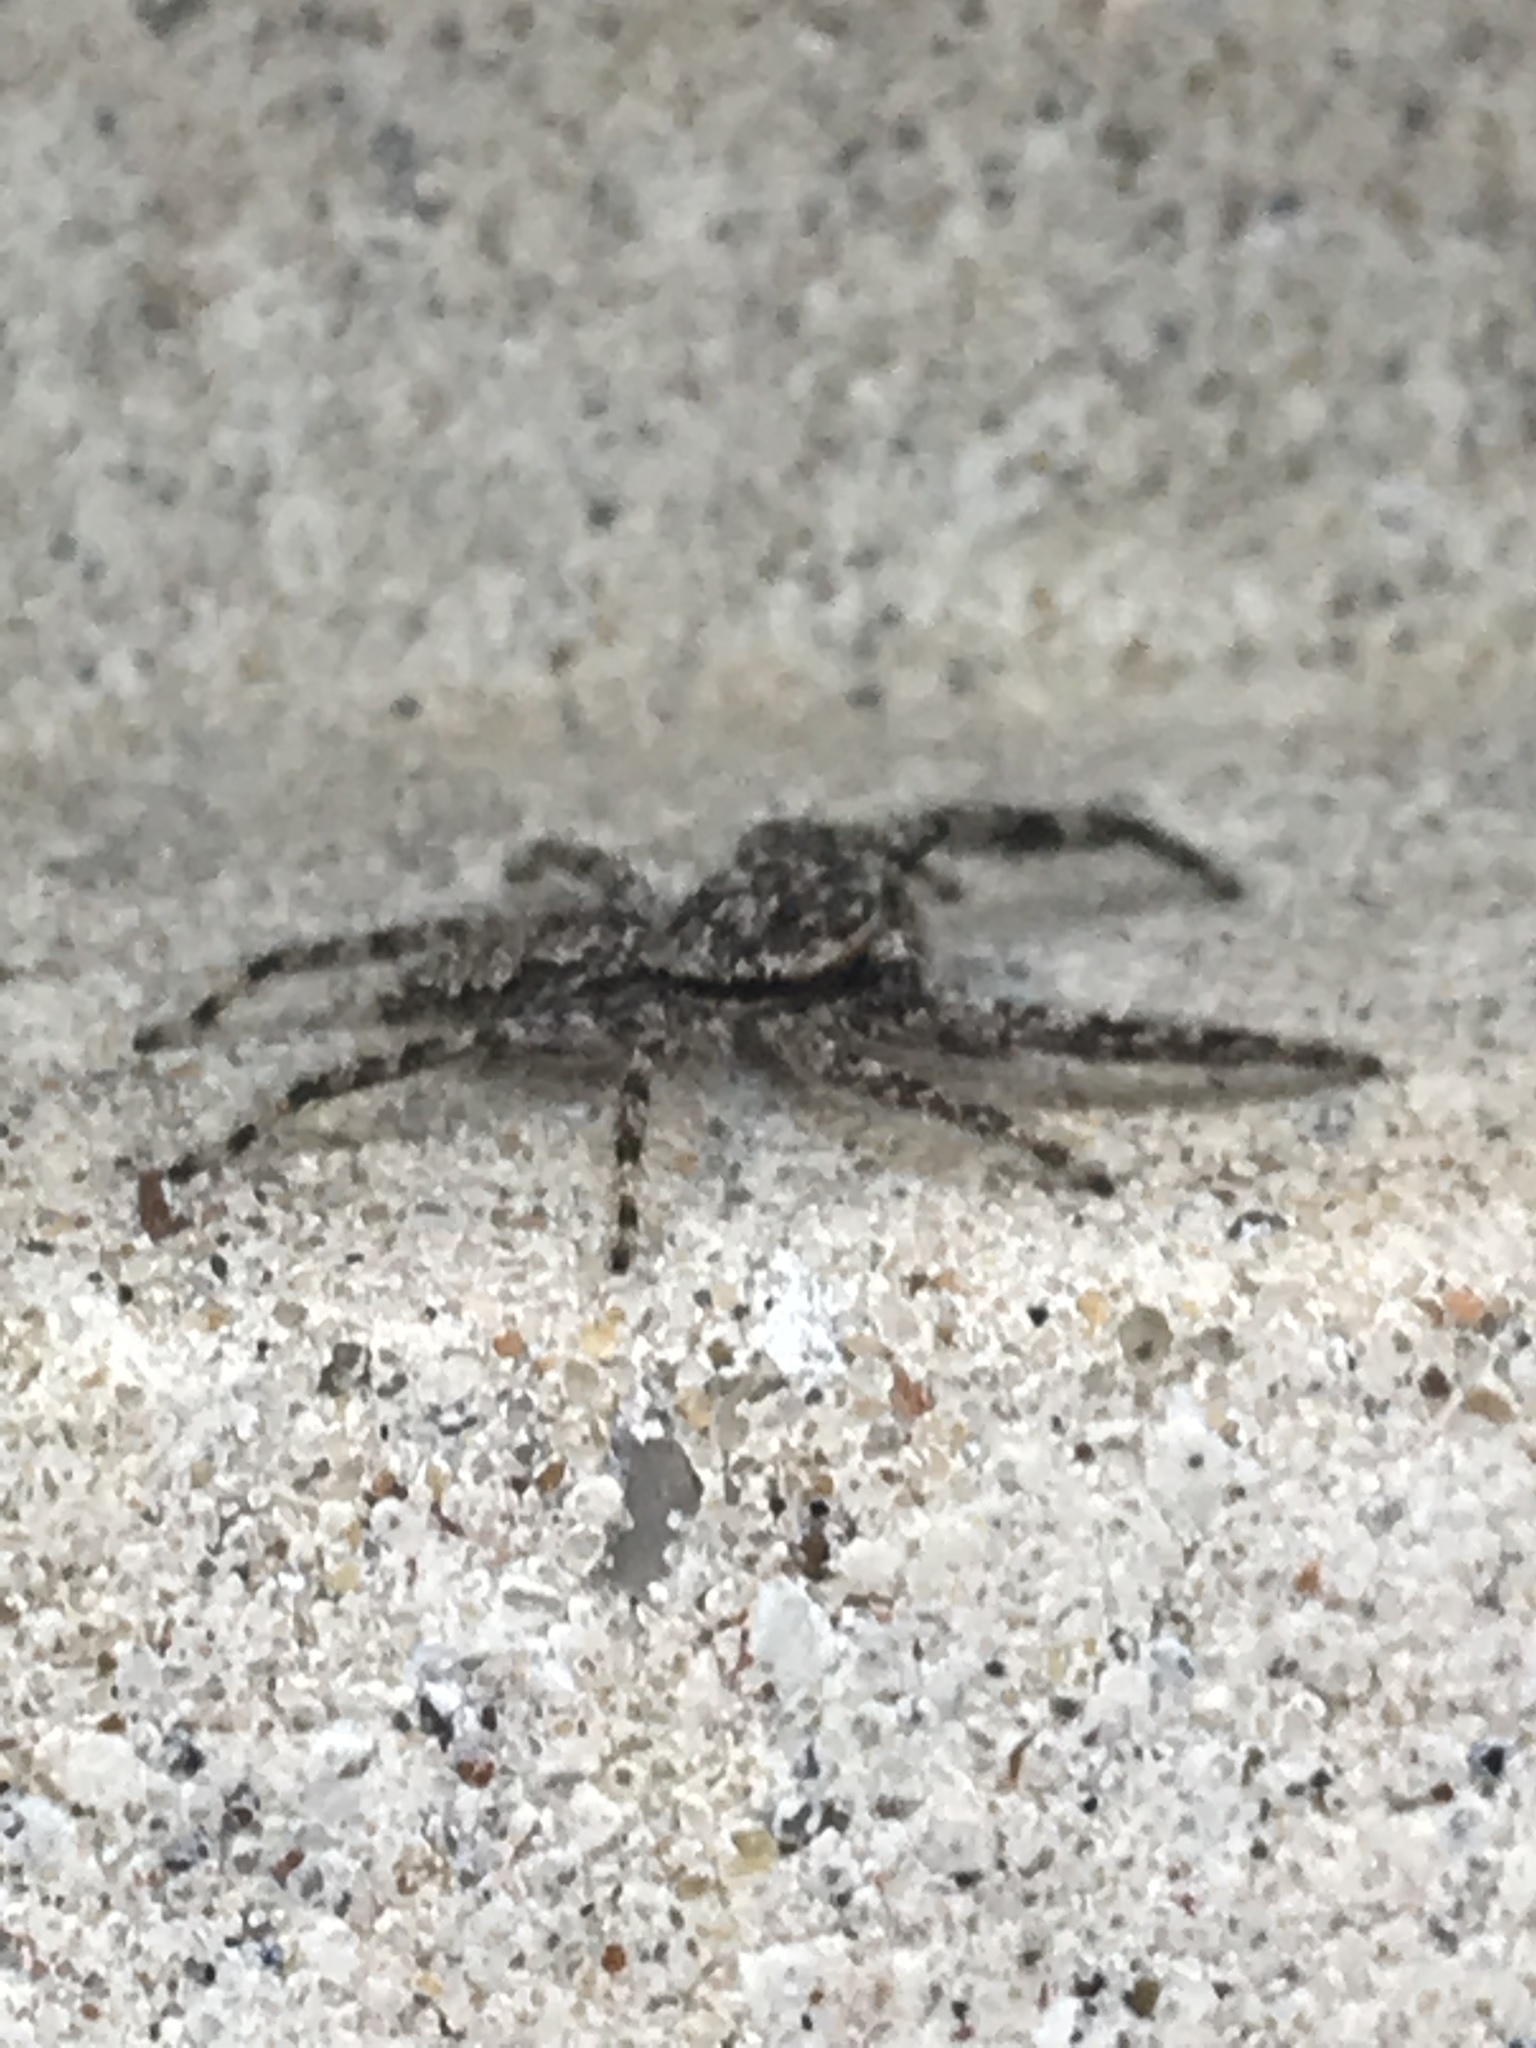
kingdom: Animalia
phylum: Arthropoda
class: Arachnida
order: Araneae
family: Salticidae
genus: Platycryptus
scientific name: Platycryptus undatus
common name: Tan jumping spider
